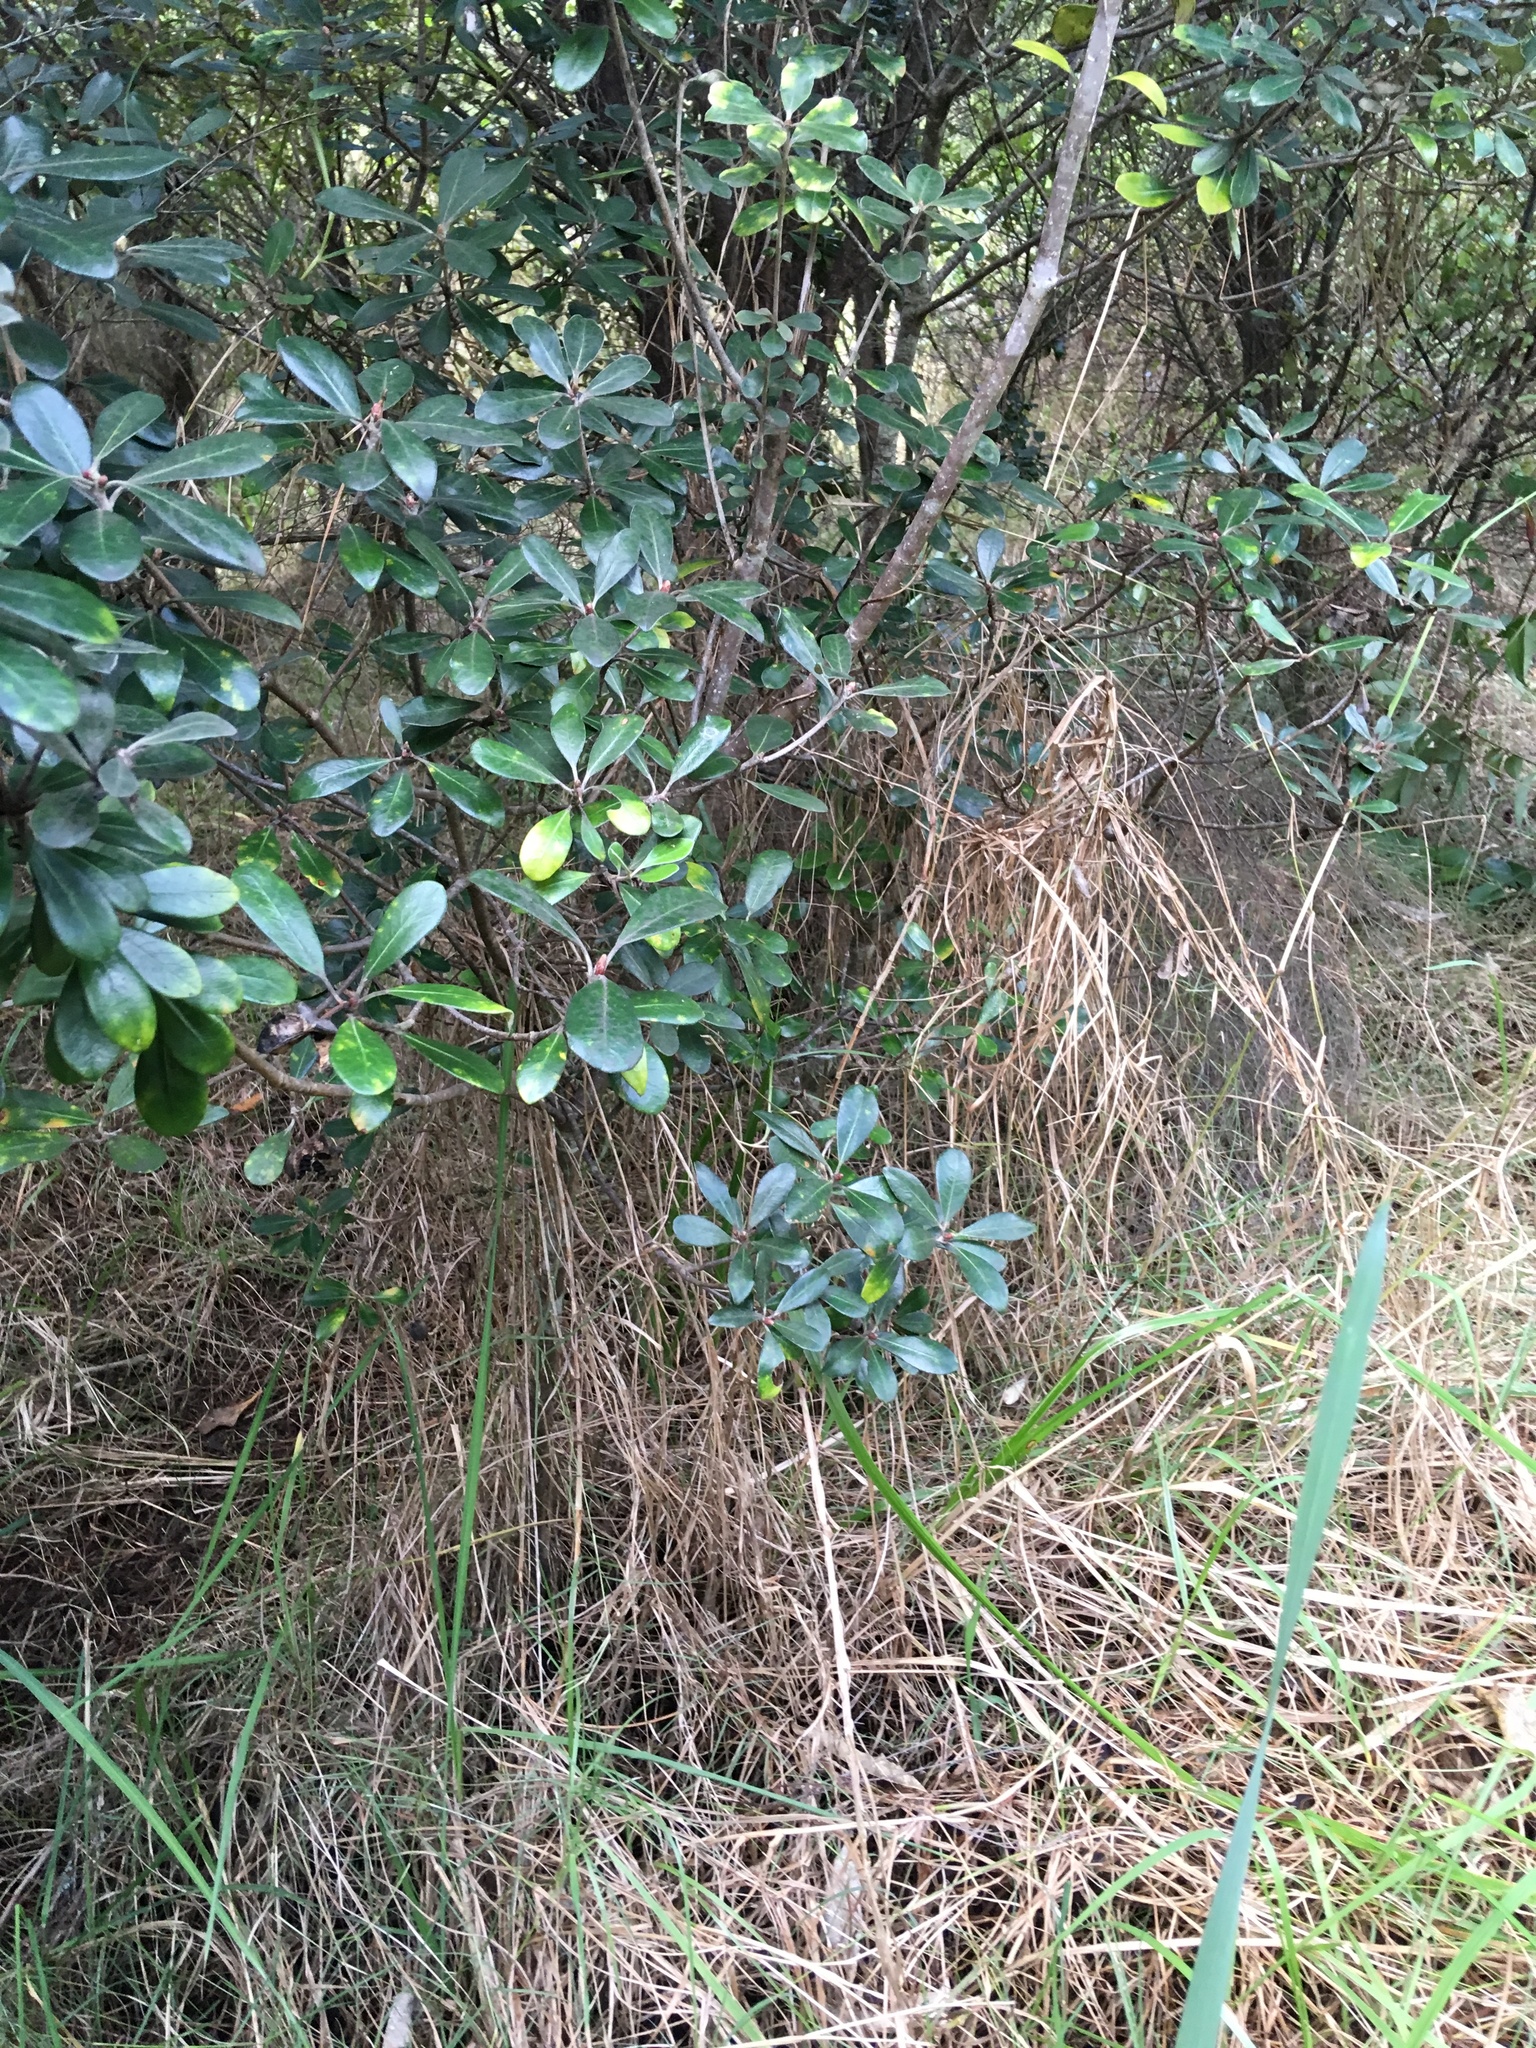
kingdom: Plantae
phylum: Tracheophyta
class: Magnoliopsida
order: Apiales
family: Pittosporaceae
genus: Pittosporum
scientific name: Pittosporum crassifolium
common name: Karo
